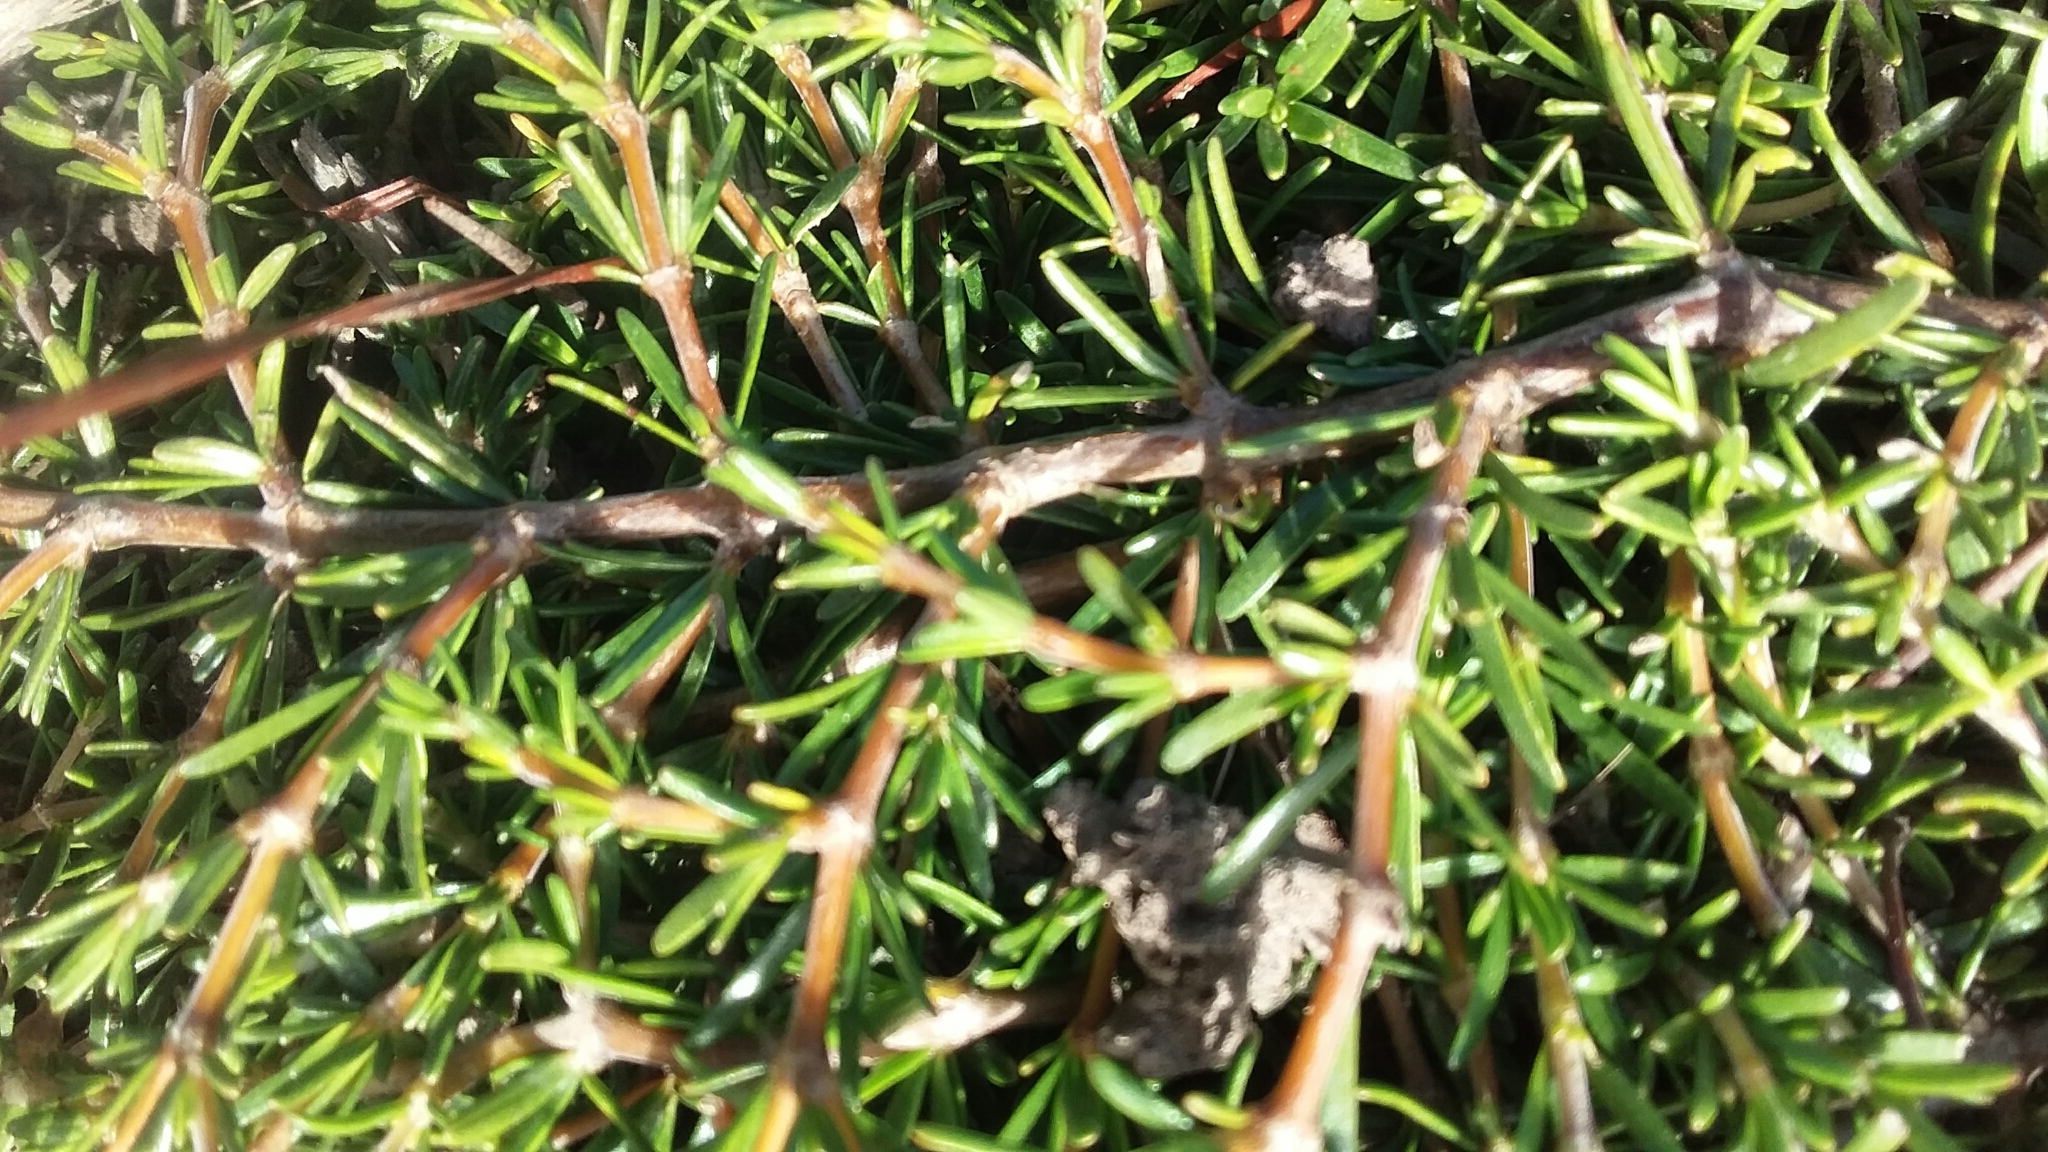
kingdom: Plantae
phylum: Tracheophyta
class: Magnoliopsida
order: Gentianales
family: Rubiaceae
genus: Coprosma
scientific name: Coprosma rugosa
